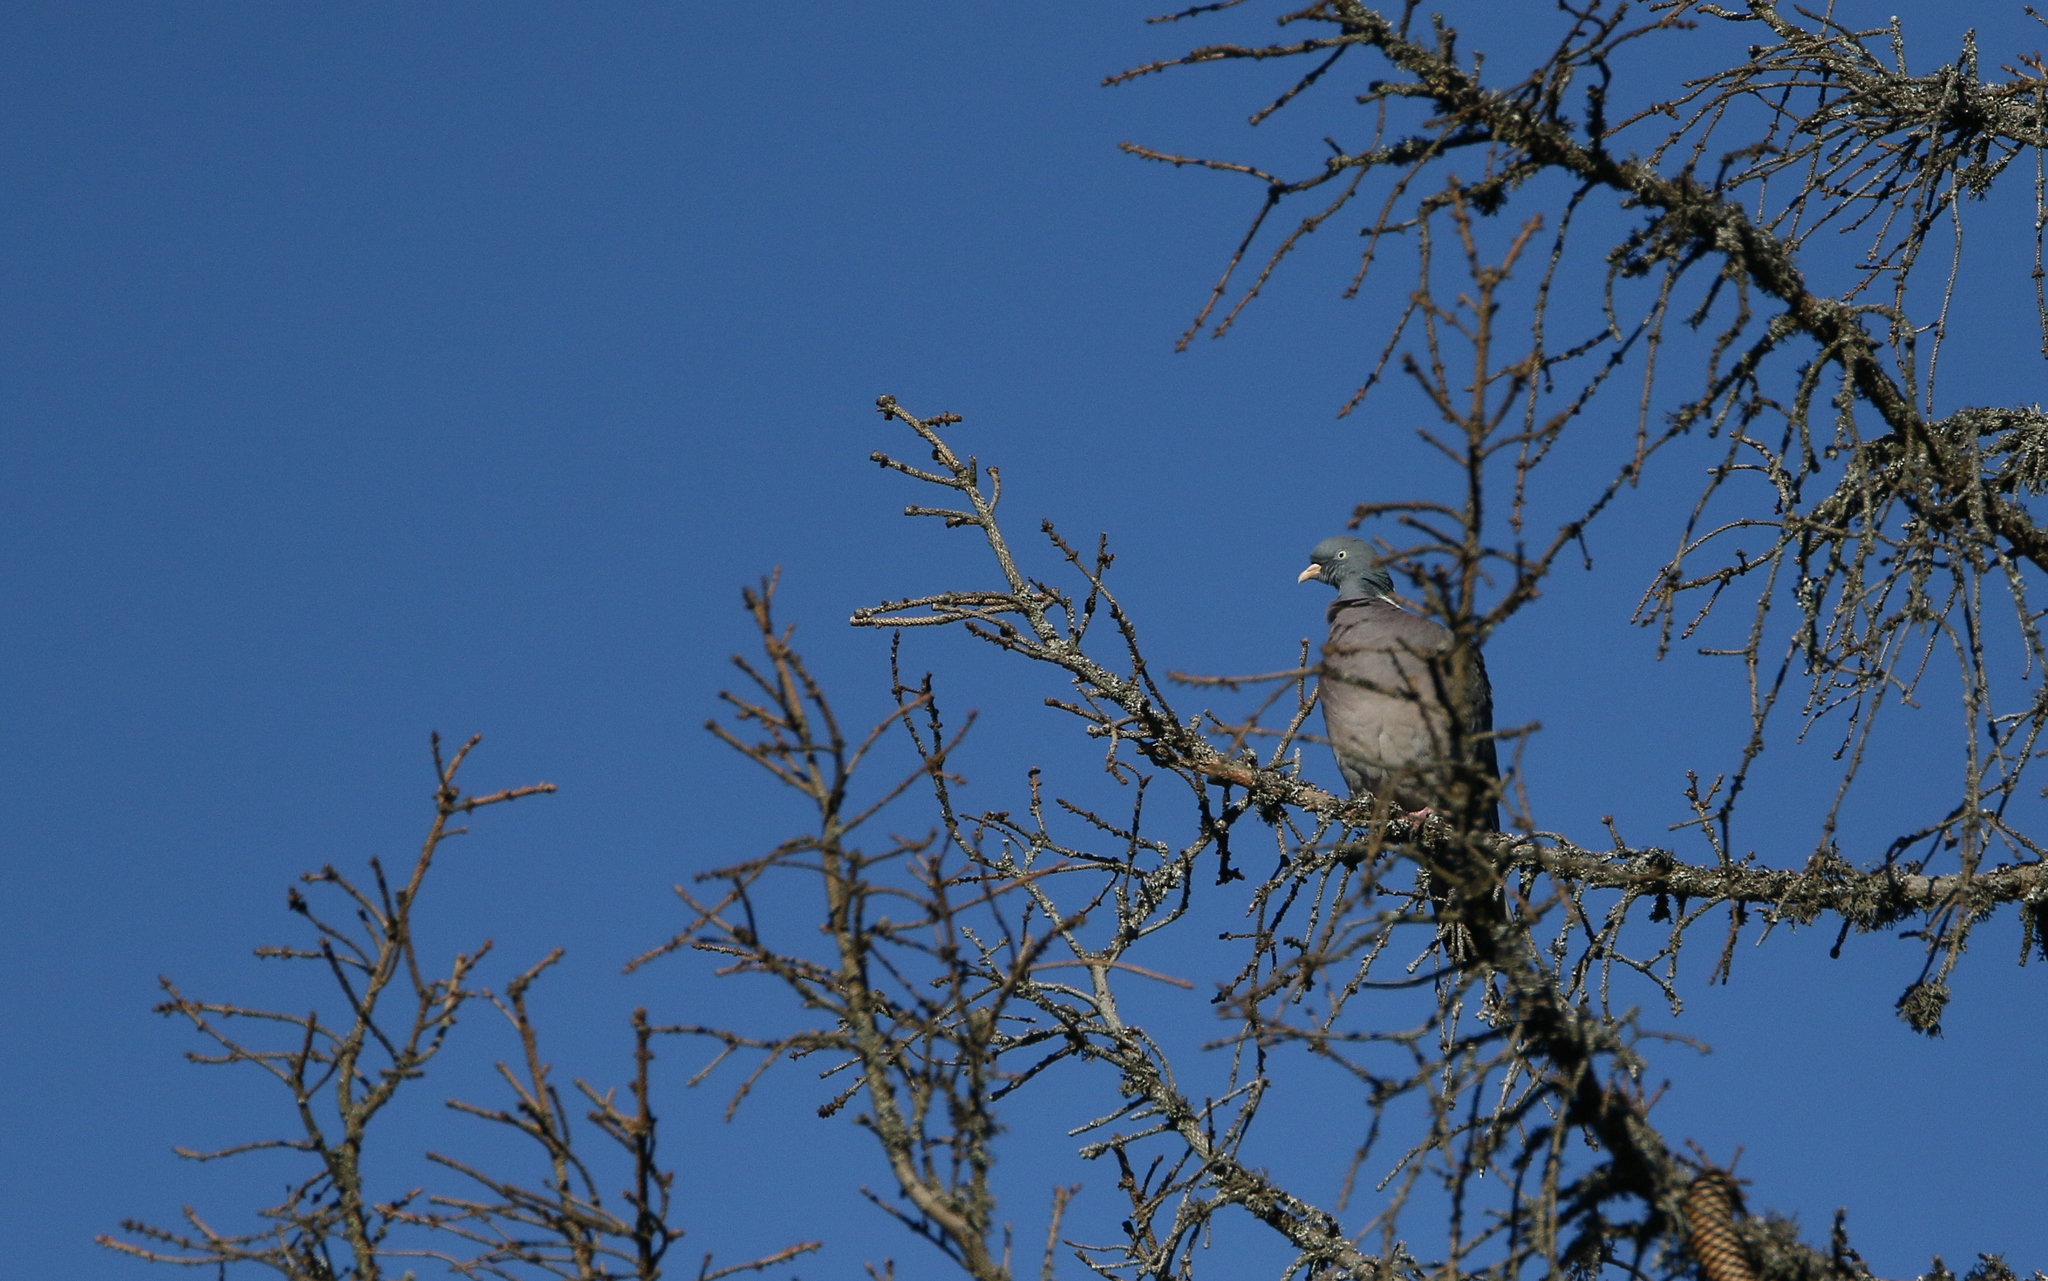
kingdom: Animalia
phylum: Chordata
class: Aves
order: Columbiformes
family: Columbidae
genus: Columba
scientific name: Columba palumbus
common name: Common wood pigeon
